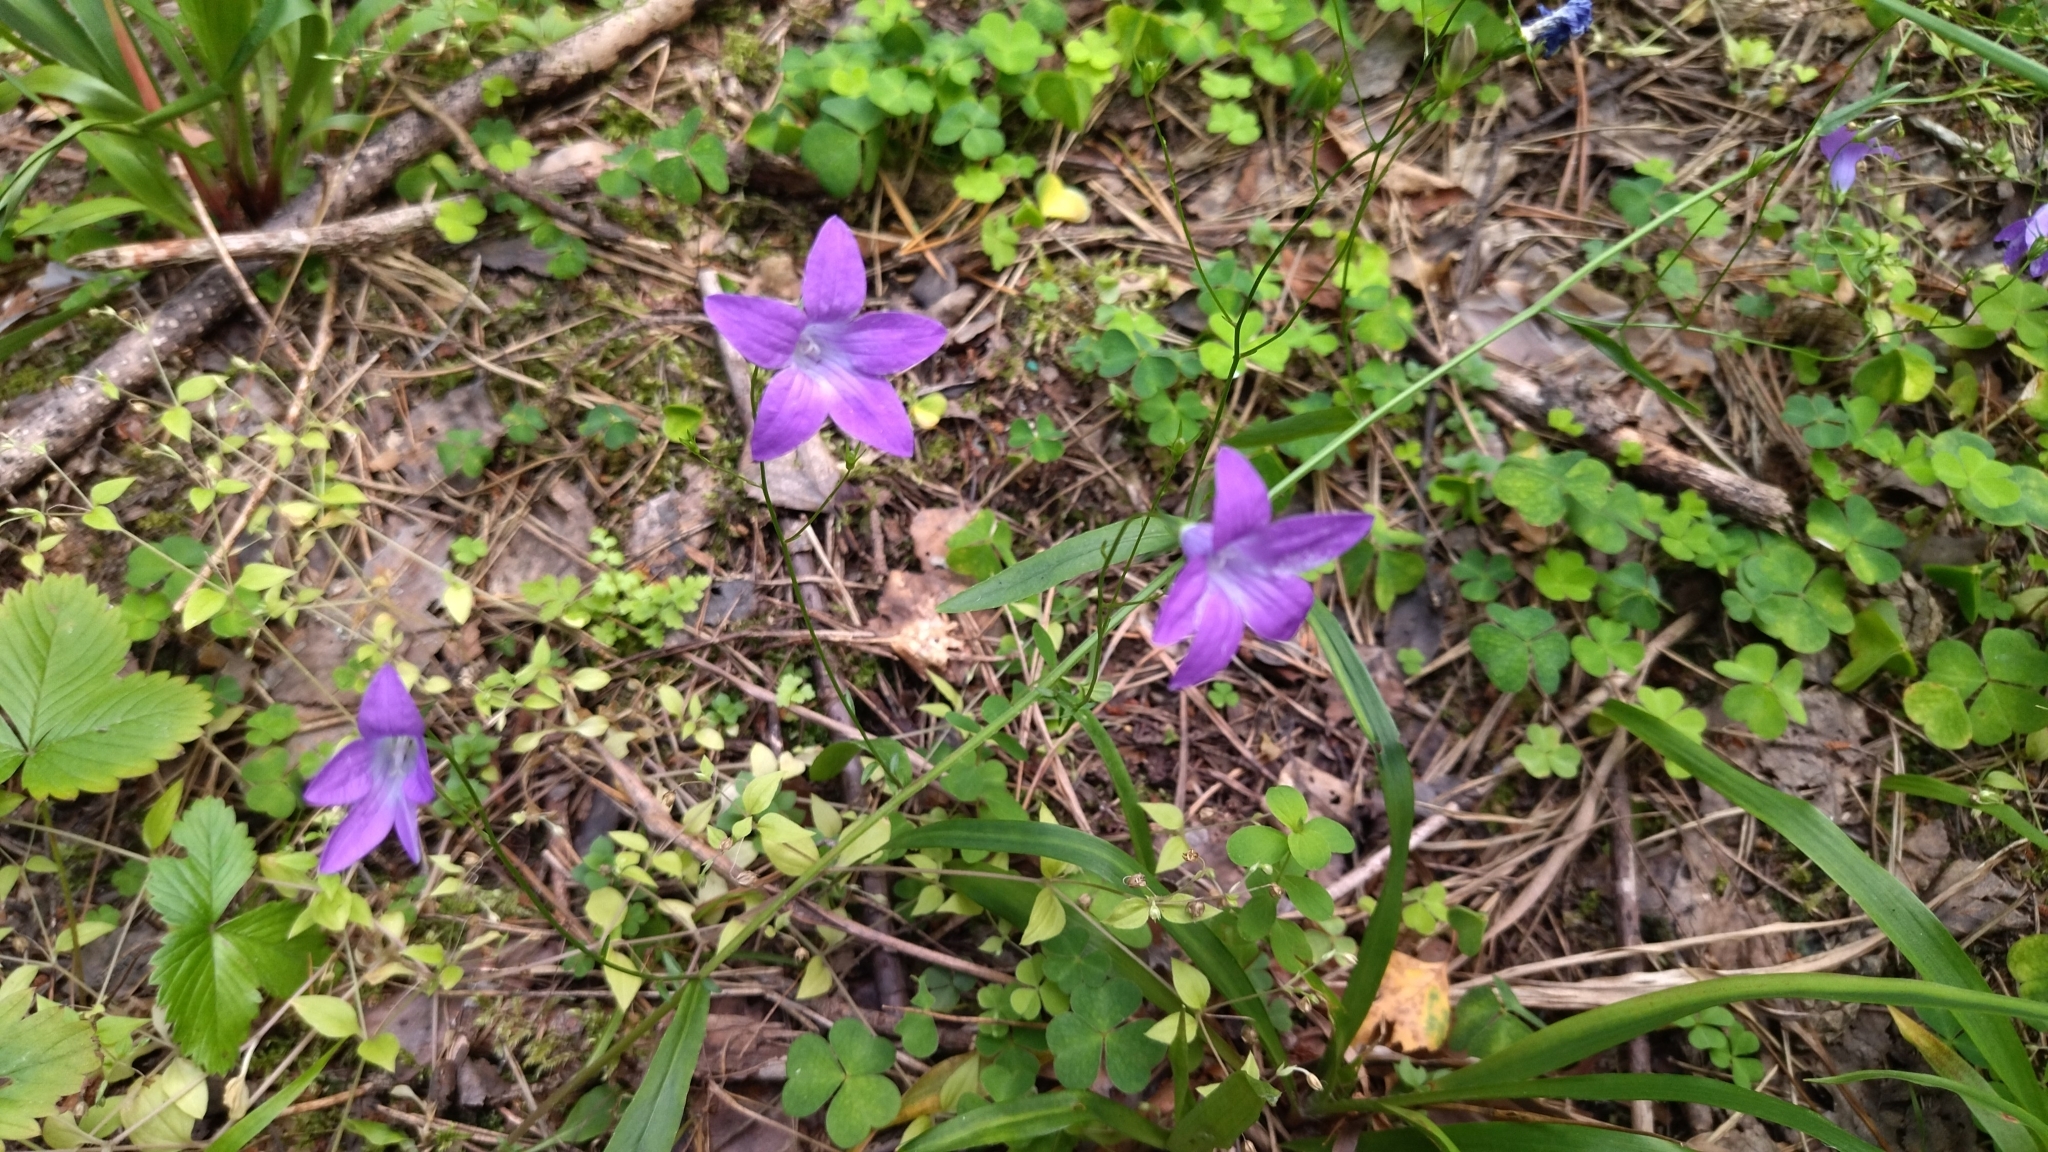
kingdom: Plantae
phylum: Tracheophyta
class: Magnoliopsida
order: Asterales
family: Campanulaceae
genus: Campanula
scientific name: Campanula patula
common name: Spreading bellflower
